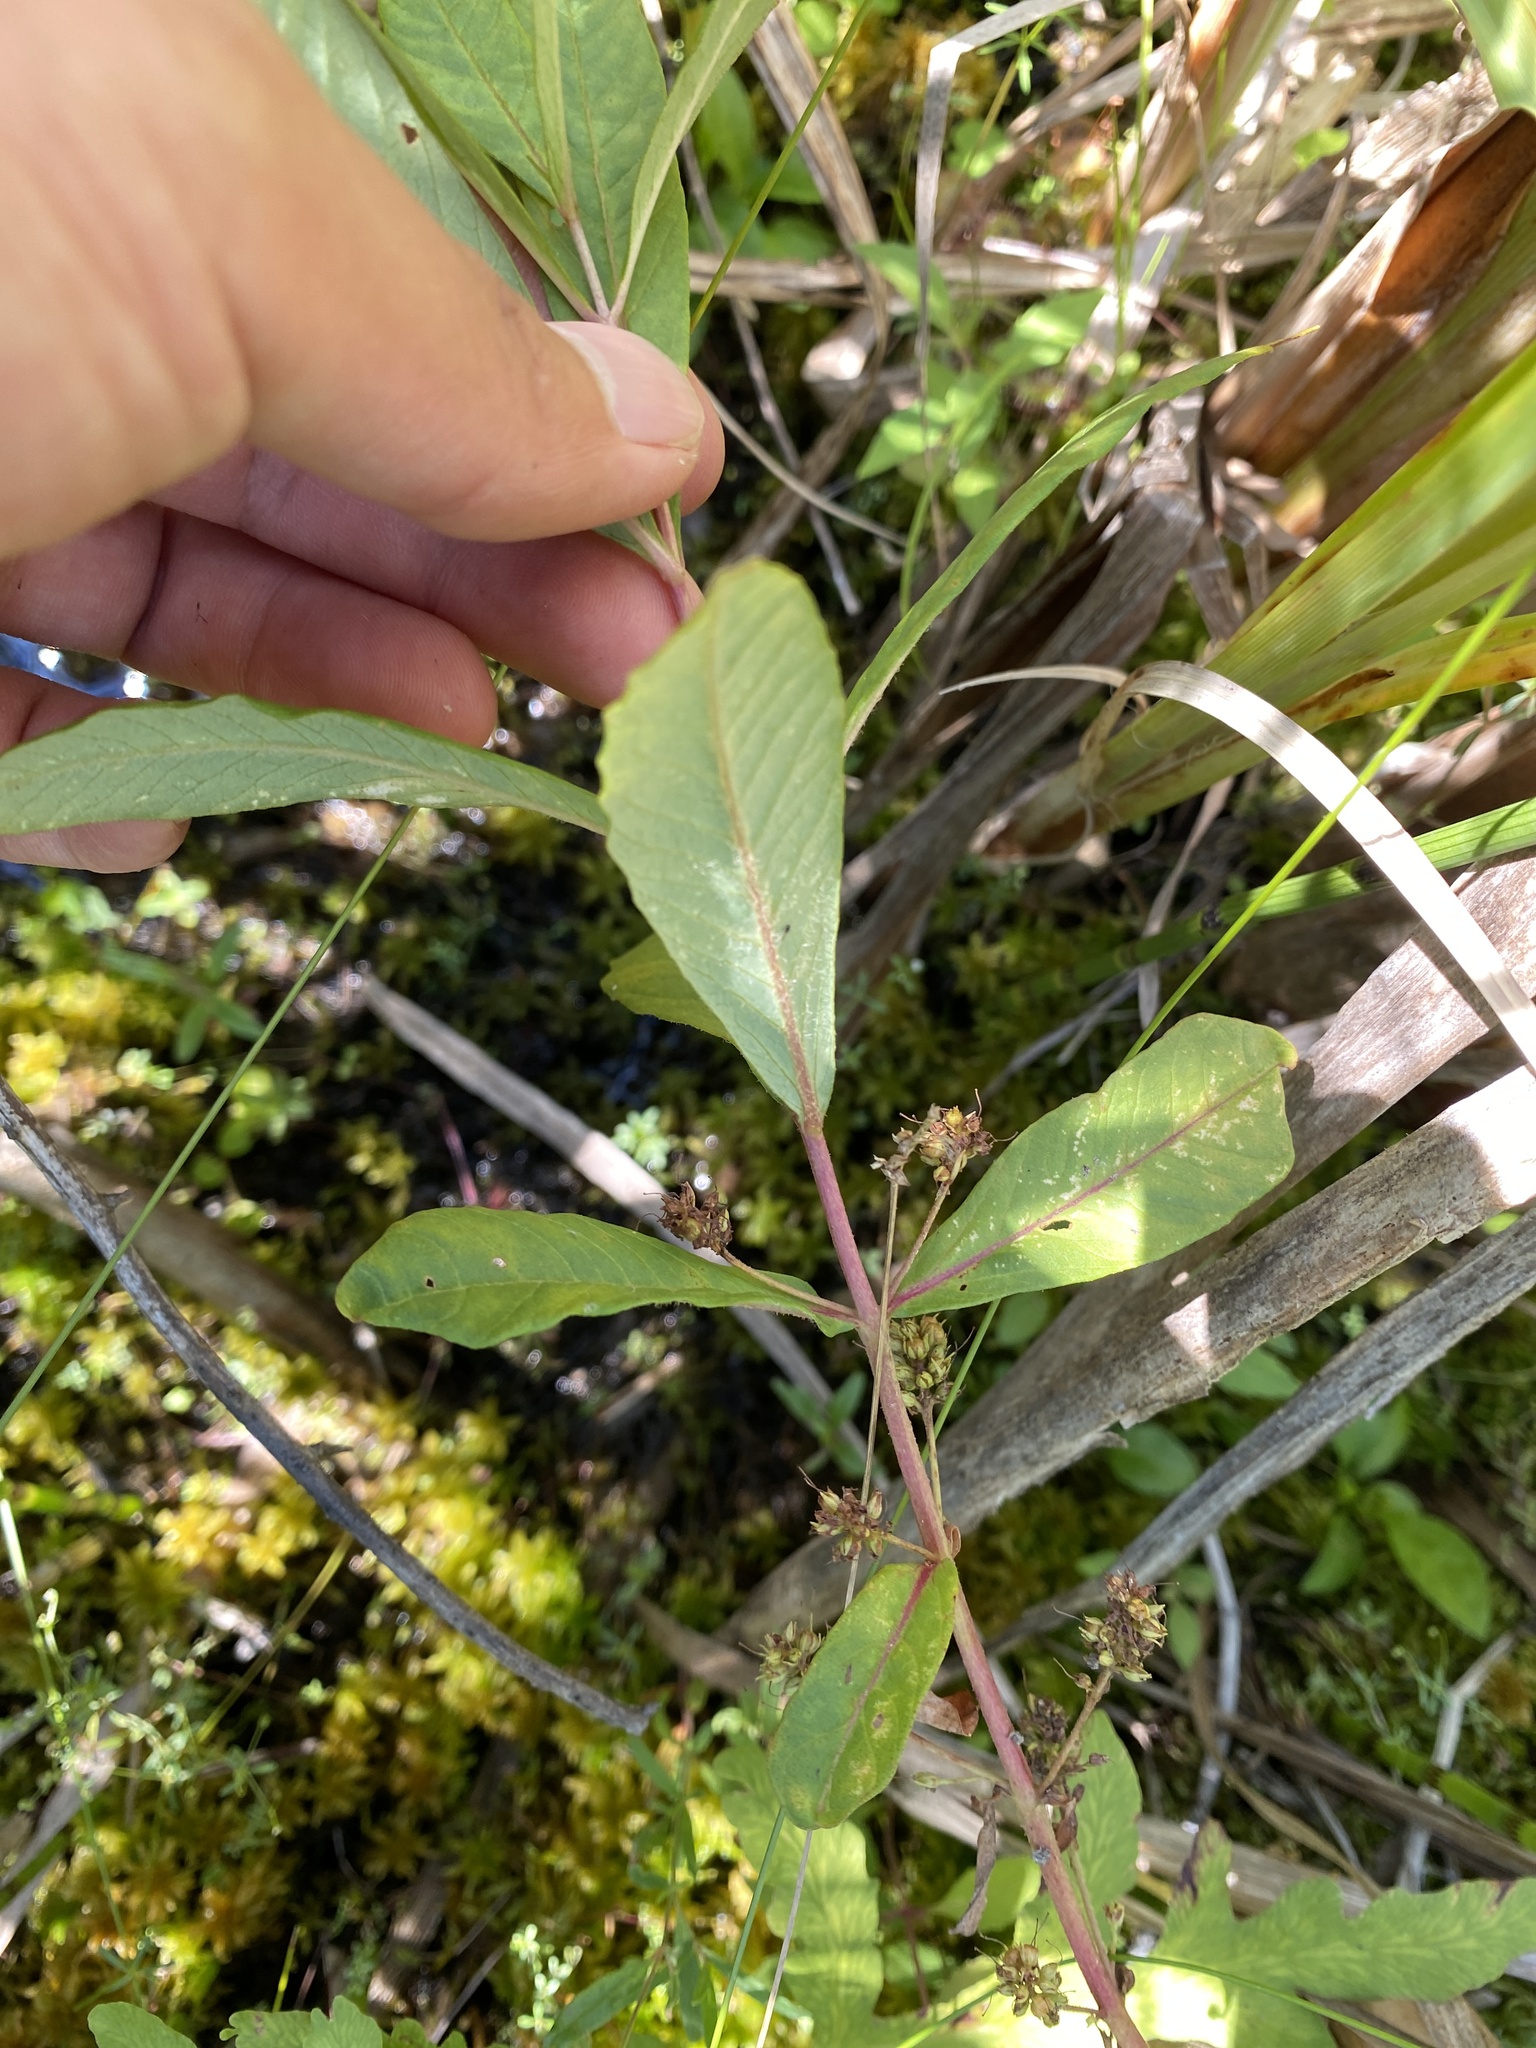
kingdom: Plantae
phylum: Tracheophyta
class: Magnoliopsida
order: Ericales
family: Primulaceae
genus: Lysimachia
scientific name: Lysimachia thyrsiflora
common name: Tufted loosestrife
